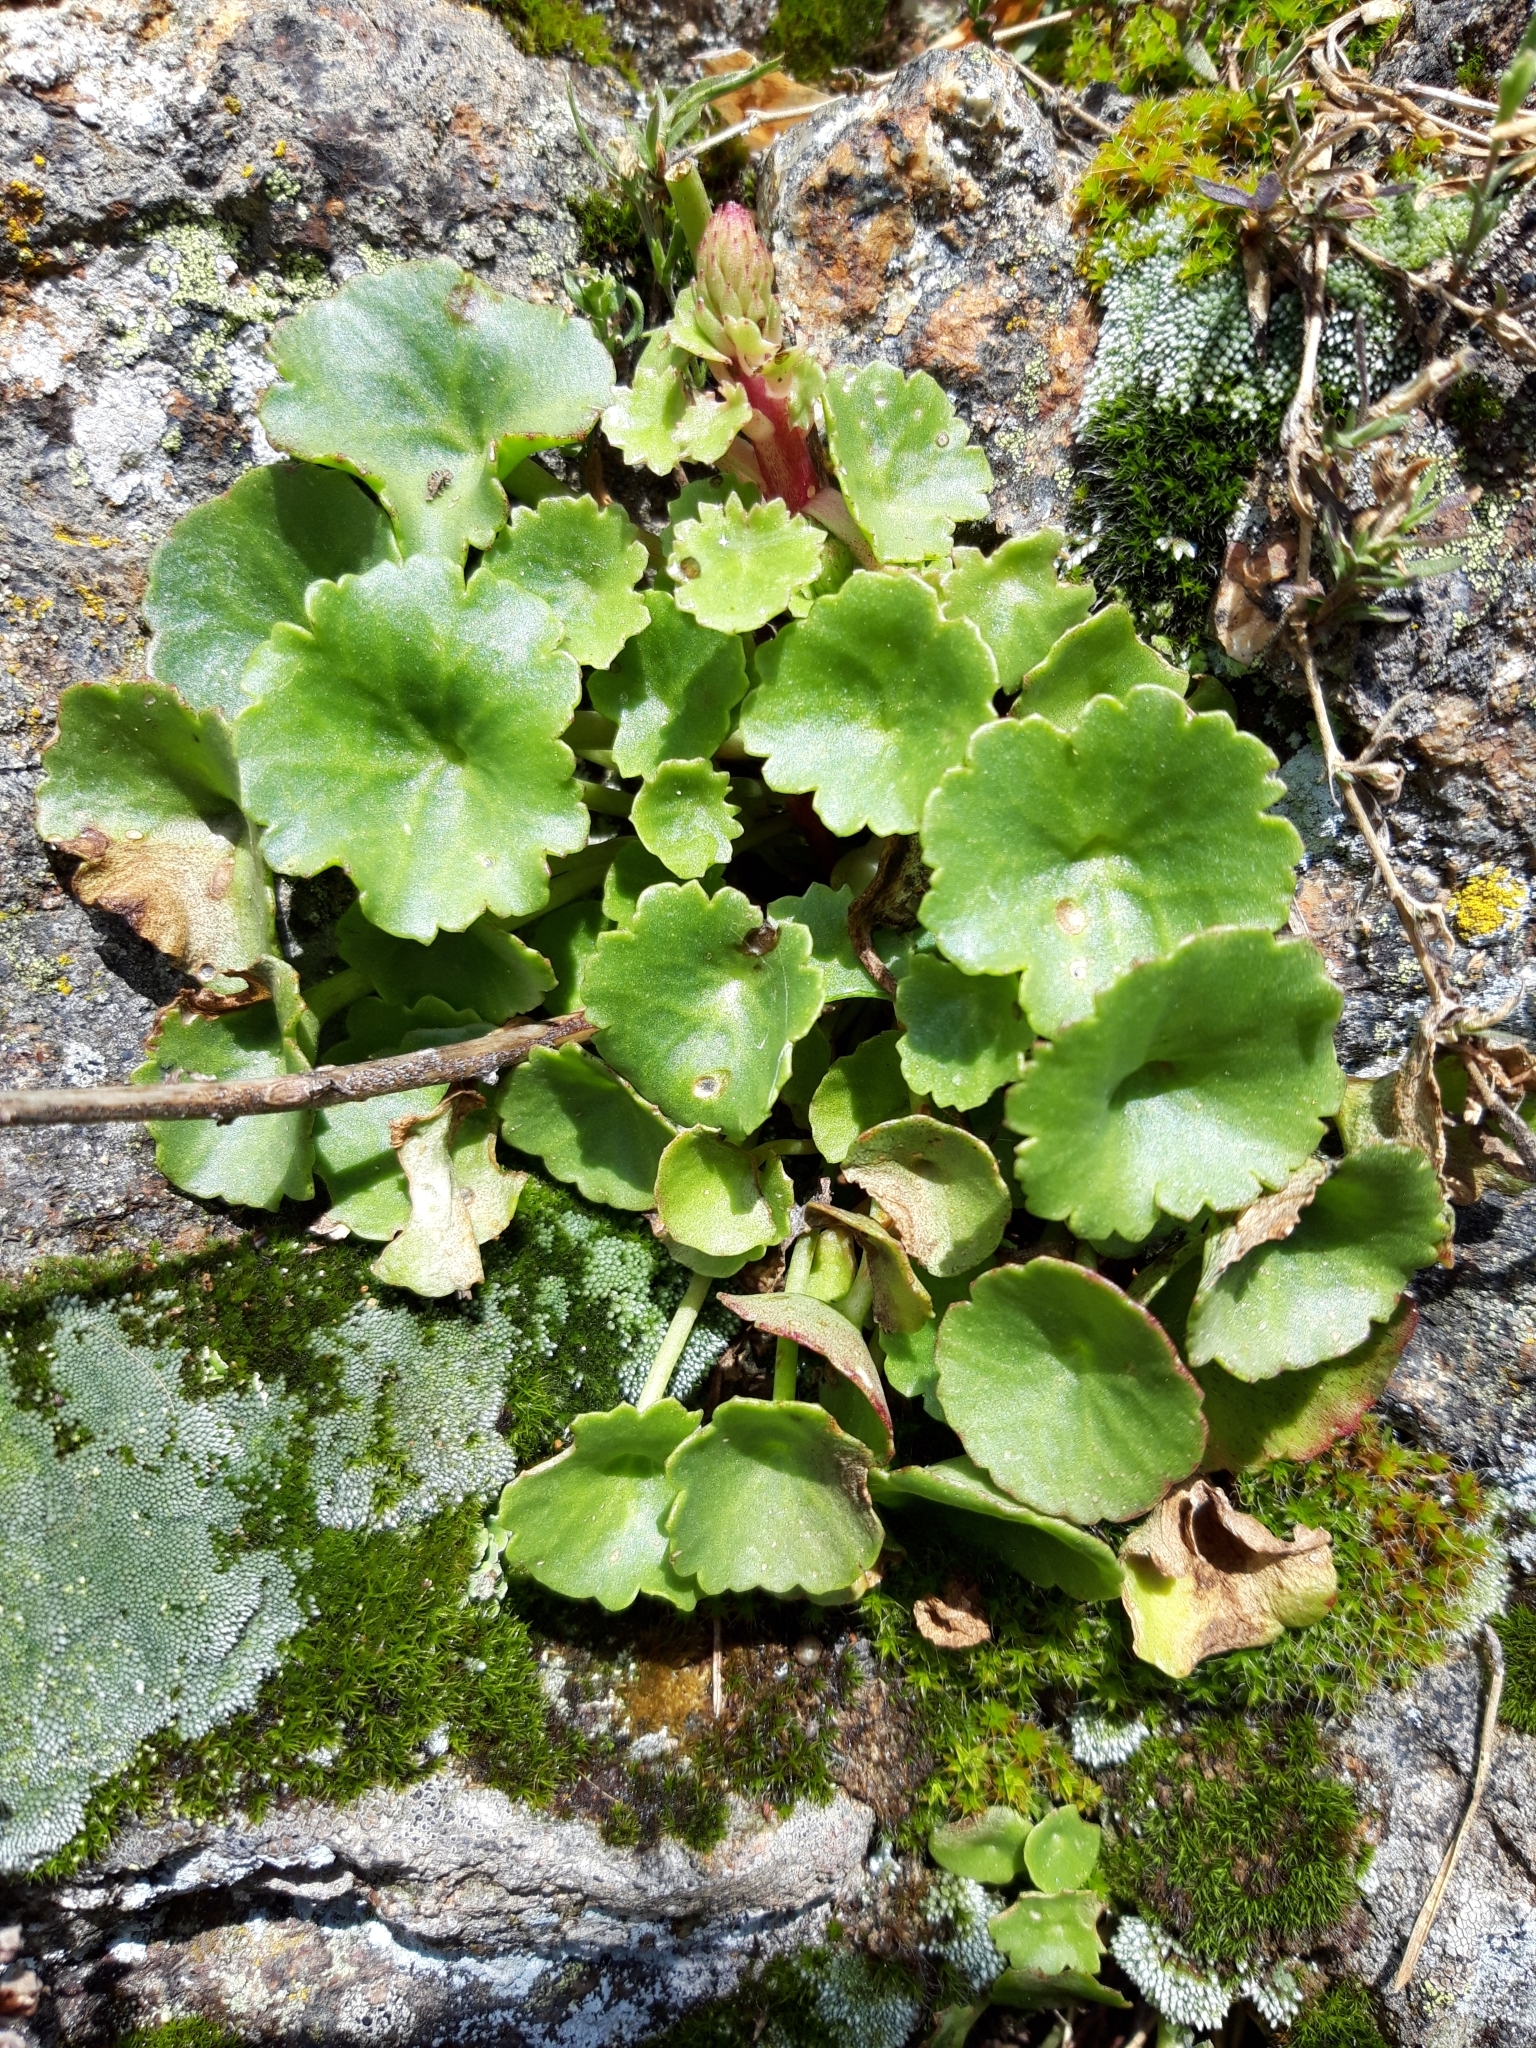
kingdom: Plantae
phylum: Tracheophyta
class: Magnoliopsida
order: Saxifragales
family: Crassulaceae
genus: Umbilicus
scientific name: Umbilicus rupestris
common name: Navelwort
